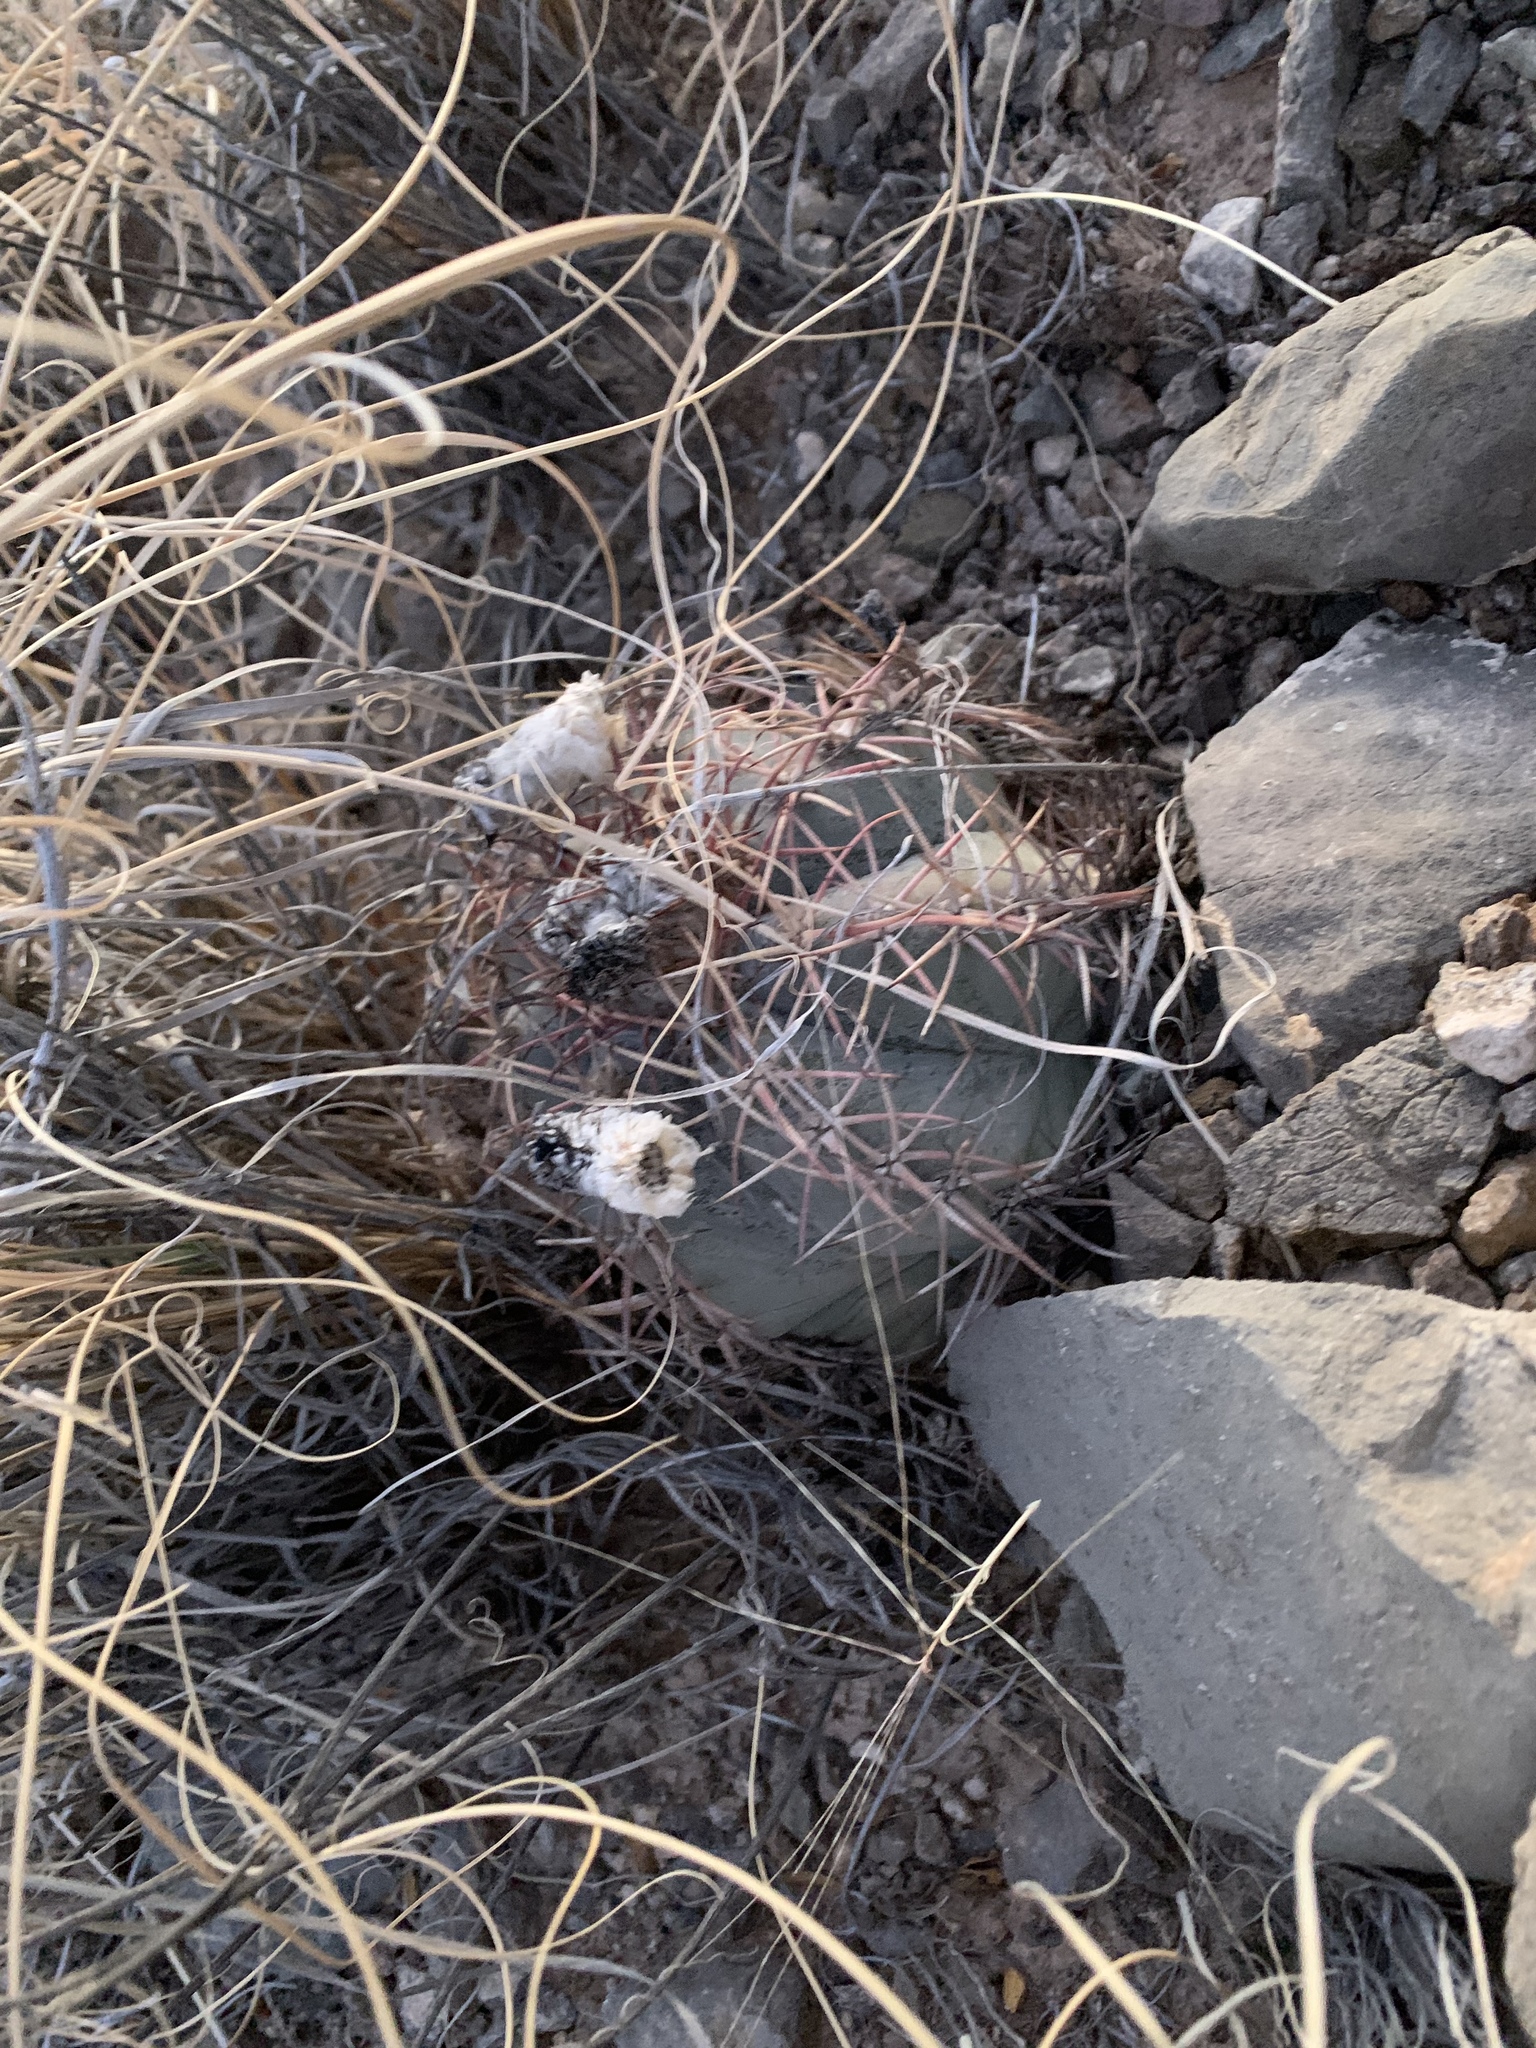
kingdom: Plantae
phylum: Tracheophyta
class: Magnoliopsida
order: Caryophyllales
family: Cactaceae
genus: Echinocactus
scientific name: Echinocactus horizonthalonius
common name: Devilshead
